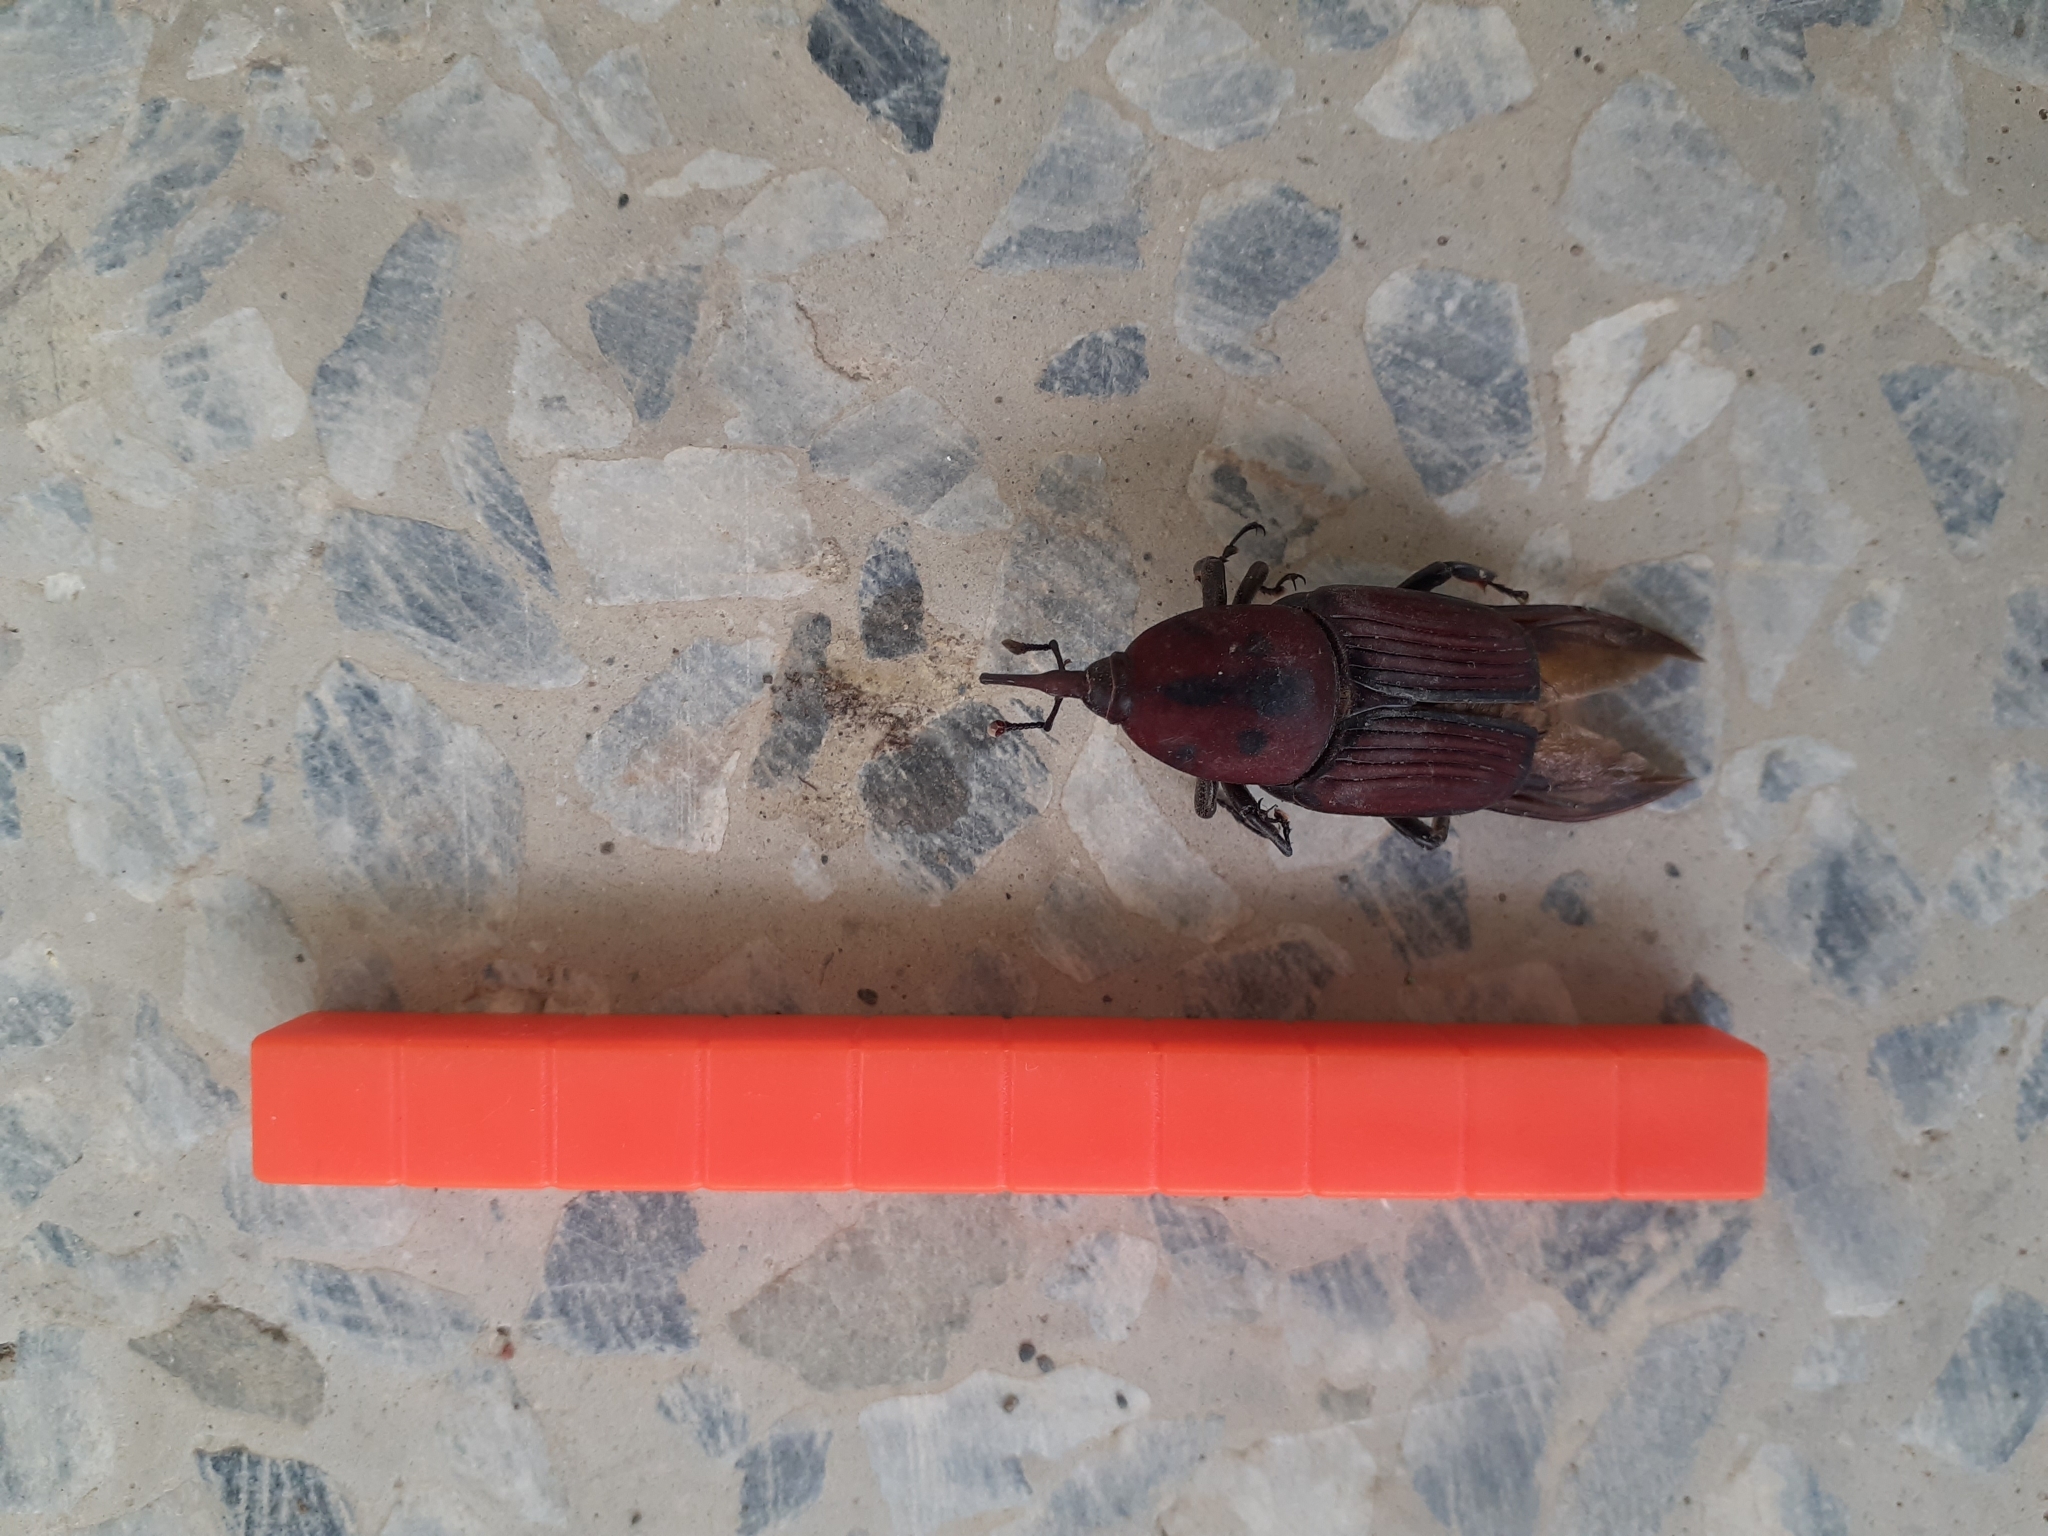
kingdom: Animalia
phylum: Arthropoda
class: Insecta
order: Coleoptera
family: Dryophthoridae
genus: Rhynchophorus
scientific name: Rhynchophorus ferrugineus
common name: Red palm weevil
